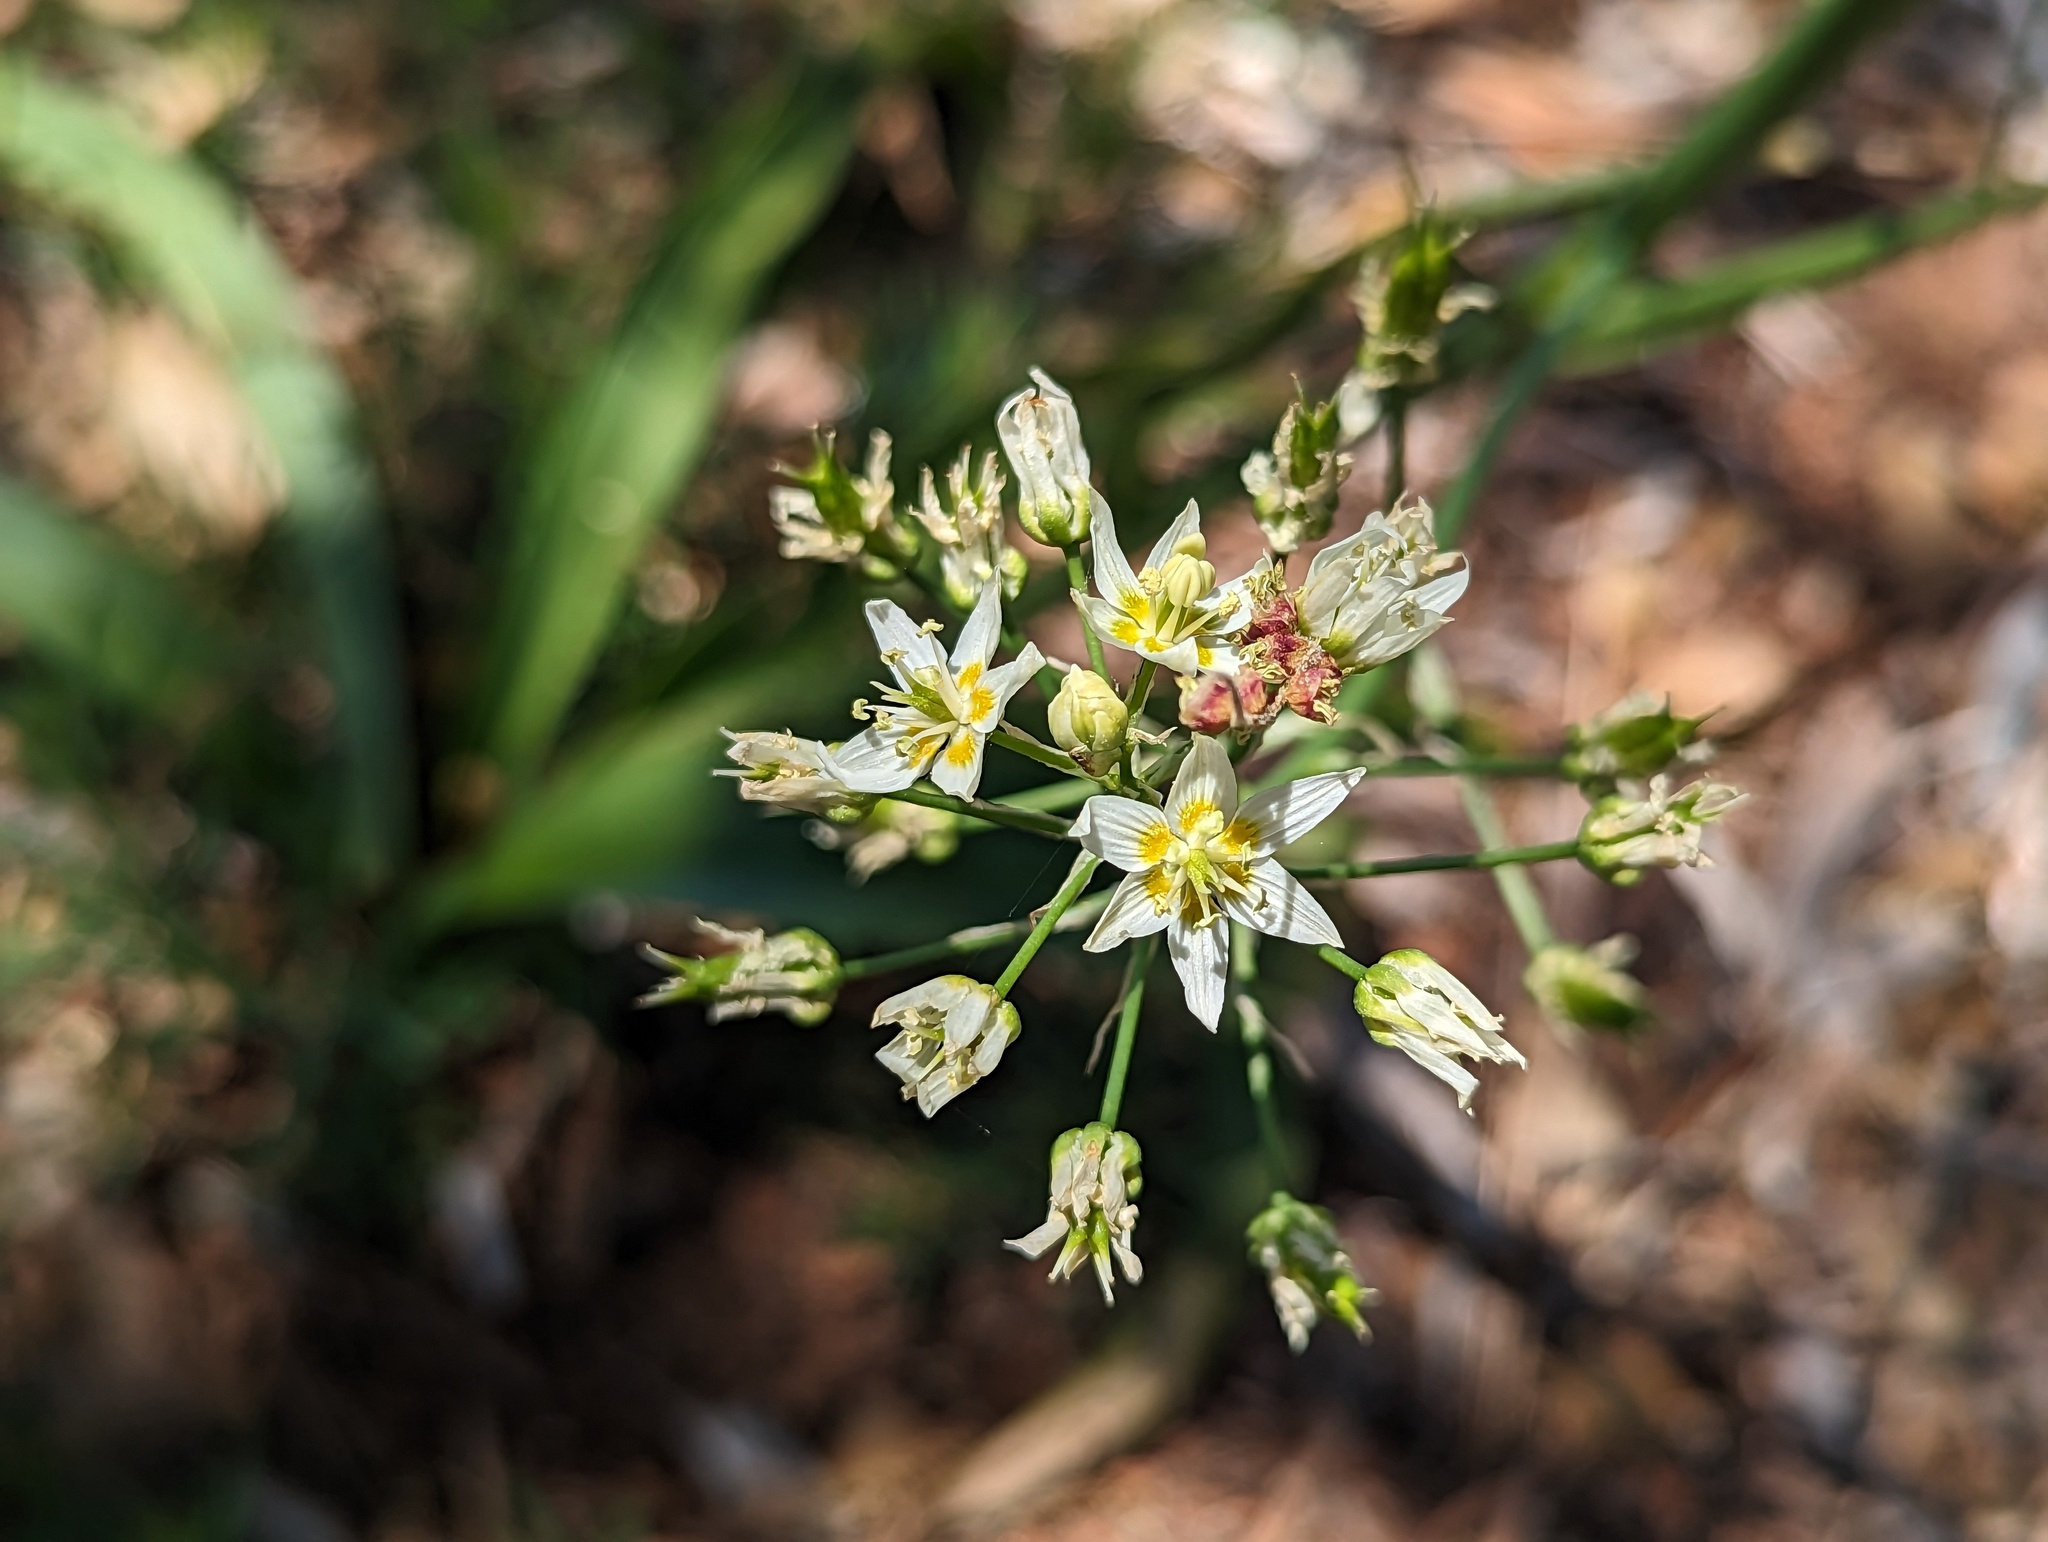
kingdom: Plantae
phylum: Tracheophyta
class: Liliopsida
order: Liliales
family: Melanthiaceae
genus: Toxicoscordion
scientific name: Toxicoscordion fremontii
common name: Fremont's death camas
